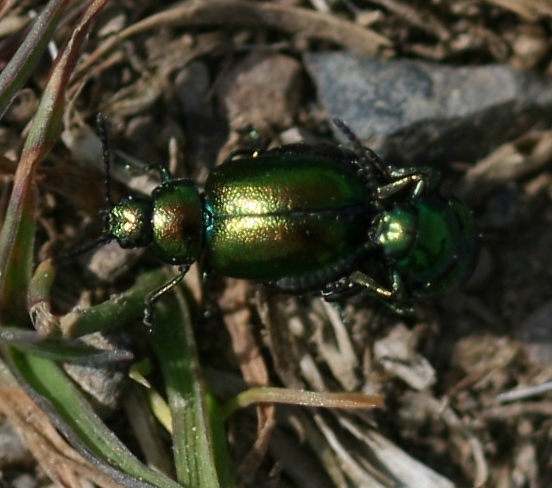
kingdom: Animalia
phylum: Arthropoda
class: Insecta
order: Coleoptera
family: Chrysomelidae
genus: Gastrophysa
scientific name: Gastrophysa viridula
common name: Green dock beetle
